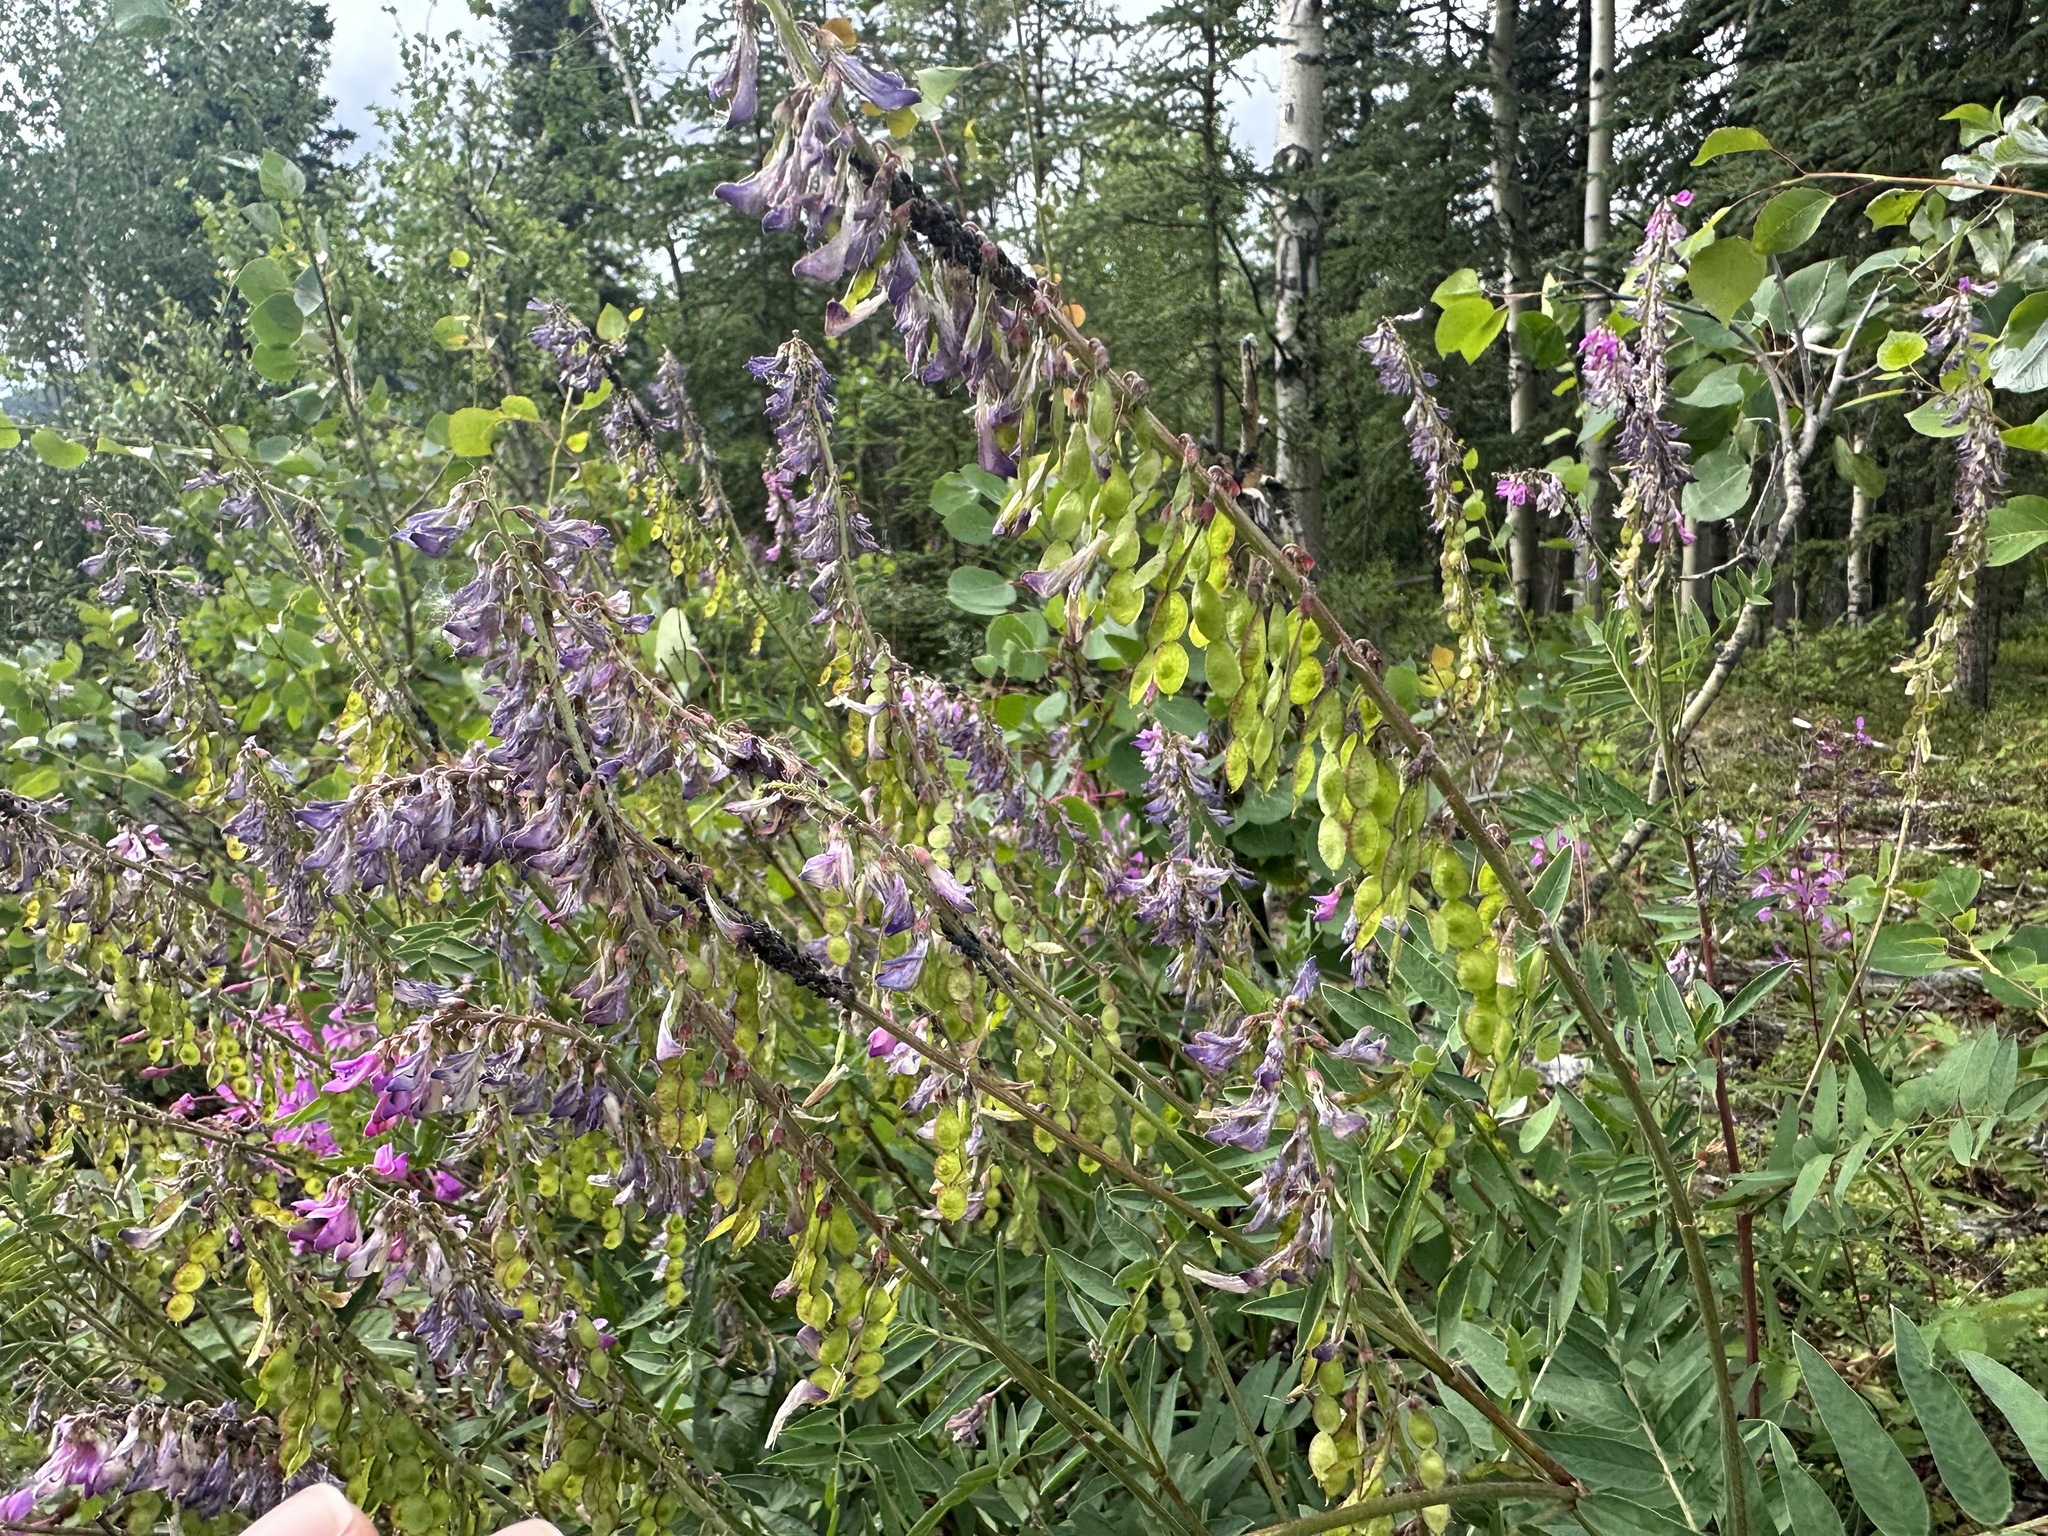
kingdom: Plantae
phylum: Tracheophyta
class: Magnoliopsida
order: Fabales
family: Fabaceae
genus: Hedysarum
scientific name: Hedysarum alpinum
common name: Alpine sweet-vetch
